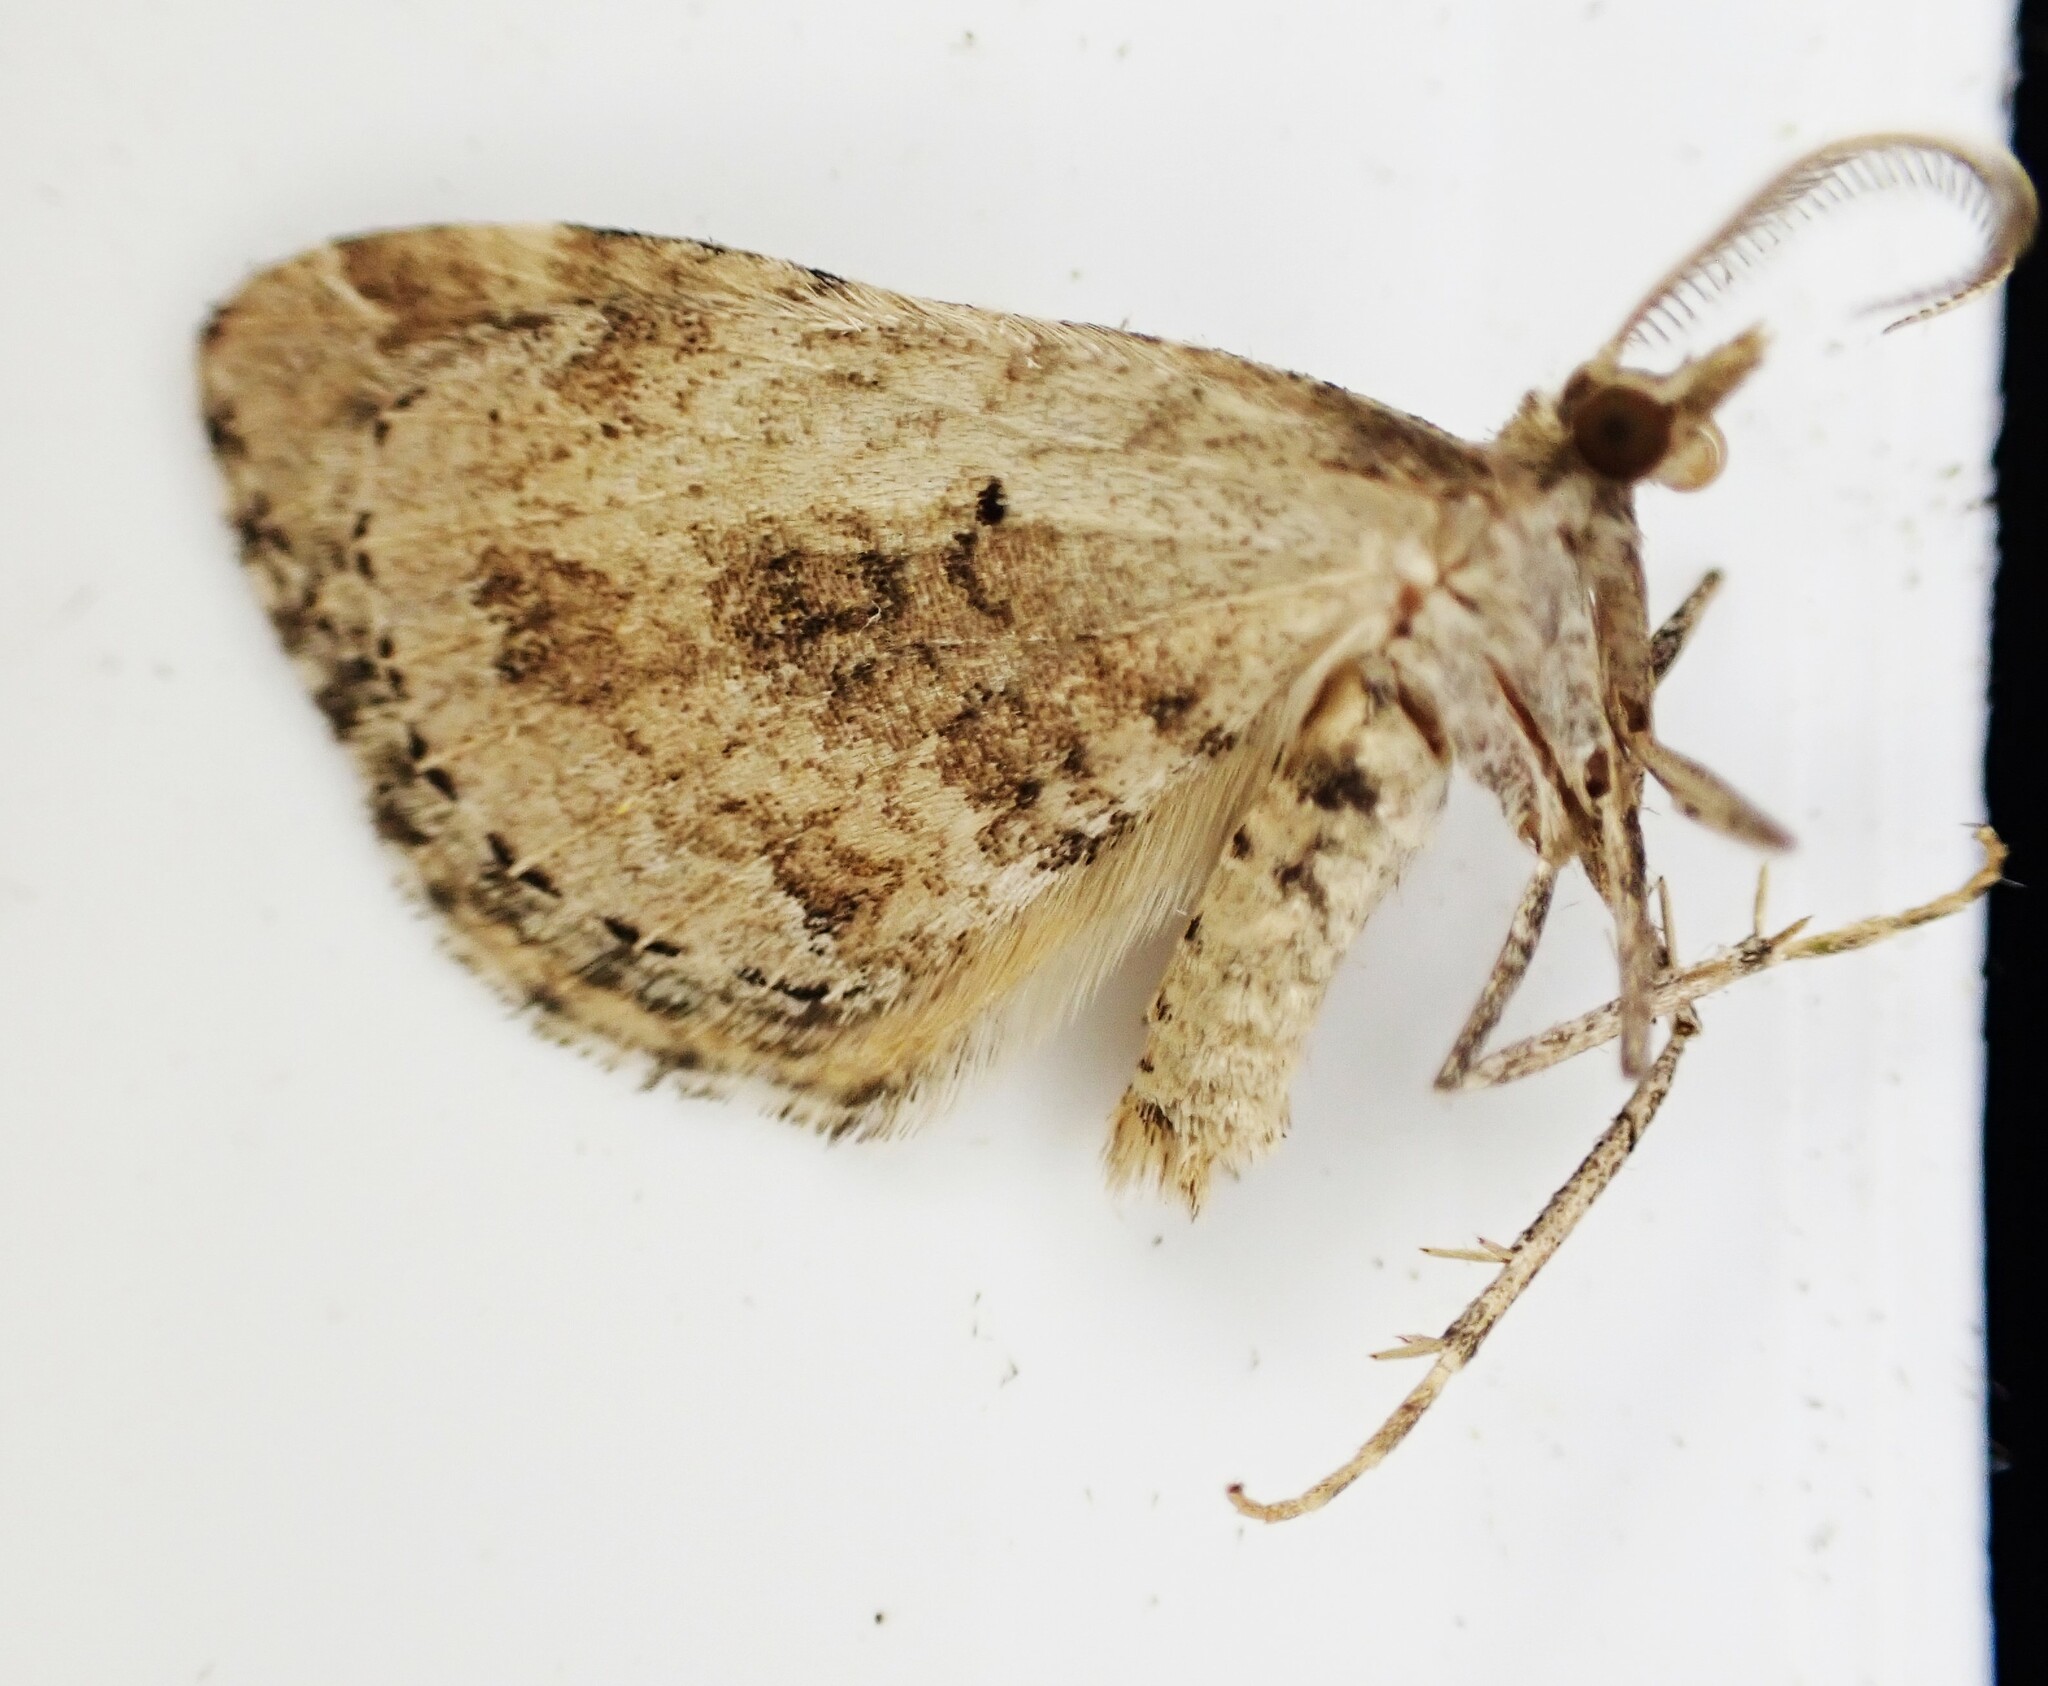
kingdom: Animalia
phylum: Arthropoda
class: Insecta
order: Lepidoptera
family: Geometridae
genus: Asaphodes
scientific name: Asaphodes aegrota
